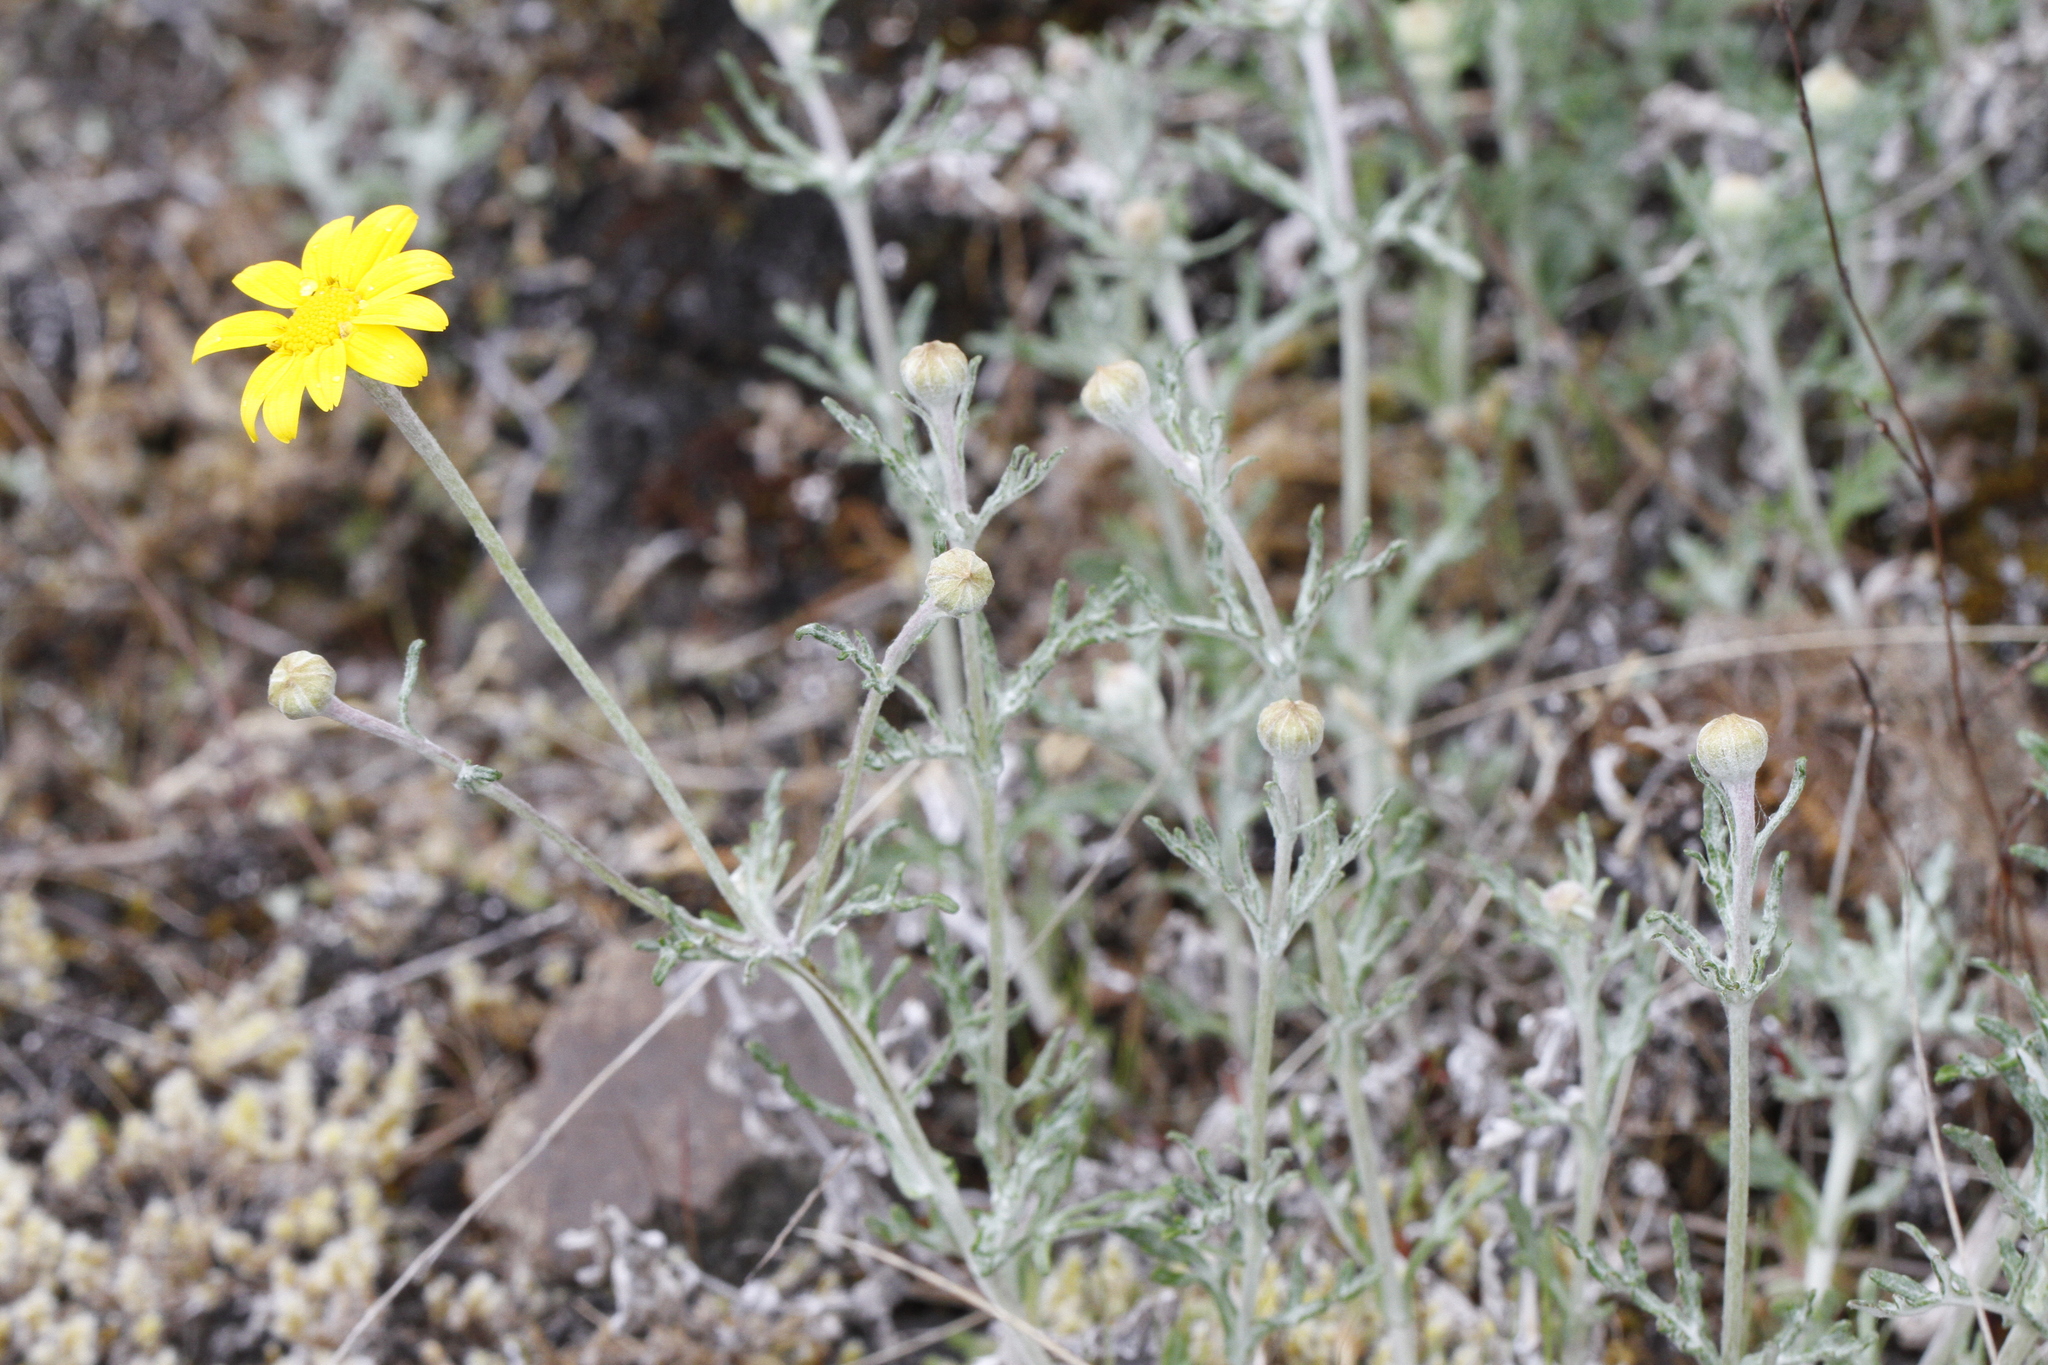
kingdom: Plantae
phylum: Tracheophyta
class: Magnoliopsida
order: Asterales
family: Asteraceae
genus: Eriophyllum
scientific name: Eriophyllum lanatum
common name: Common woolly-sunflower
